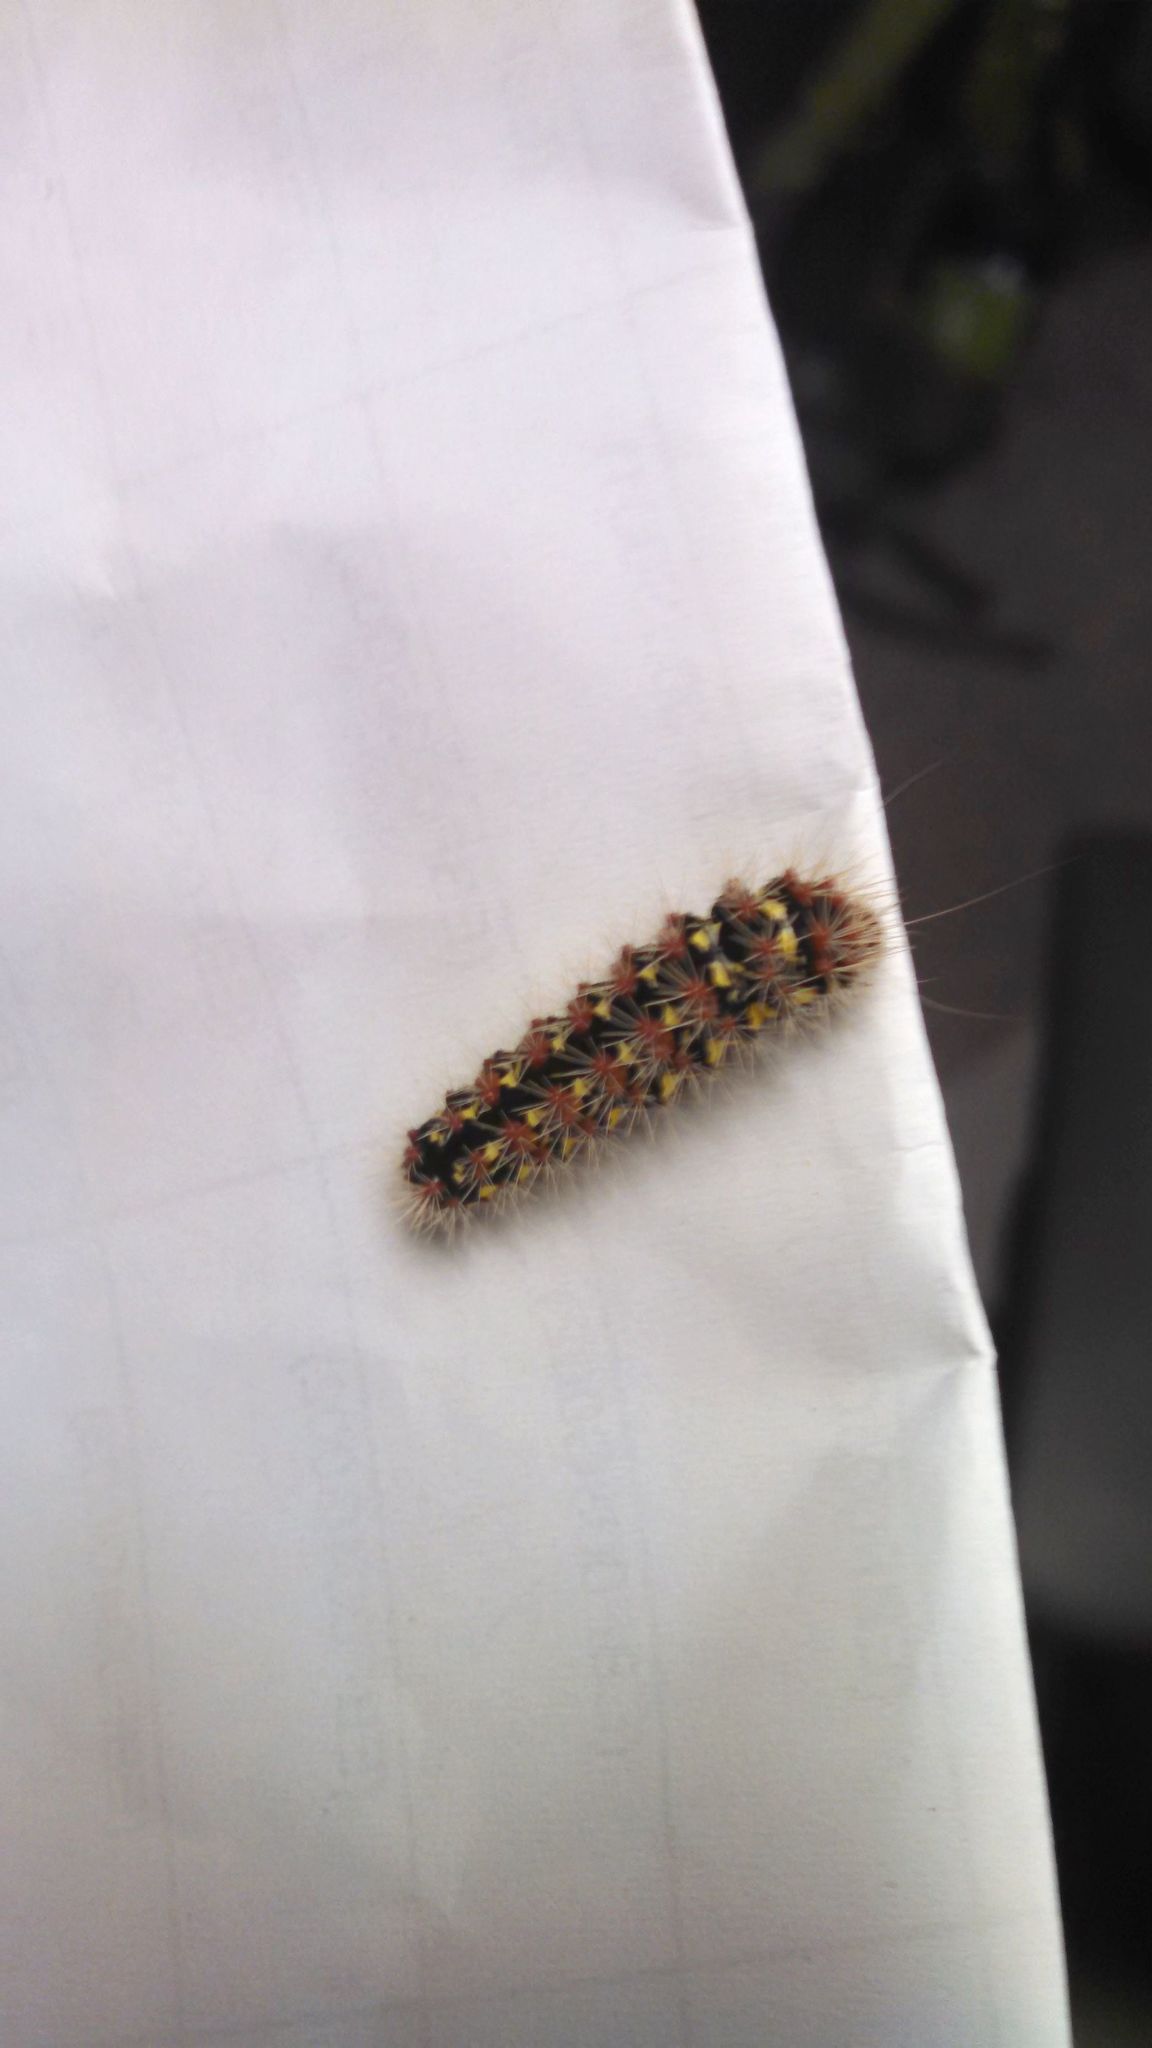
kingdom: Animalia
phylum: Arthropoda
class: Insecta
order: Lepidoptera
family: Noctuidae
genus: Acronicta
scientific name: Acronicta oblinita
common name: Smeared dagger
